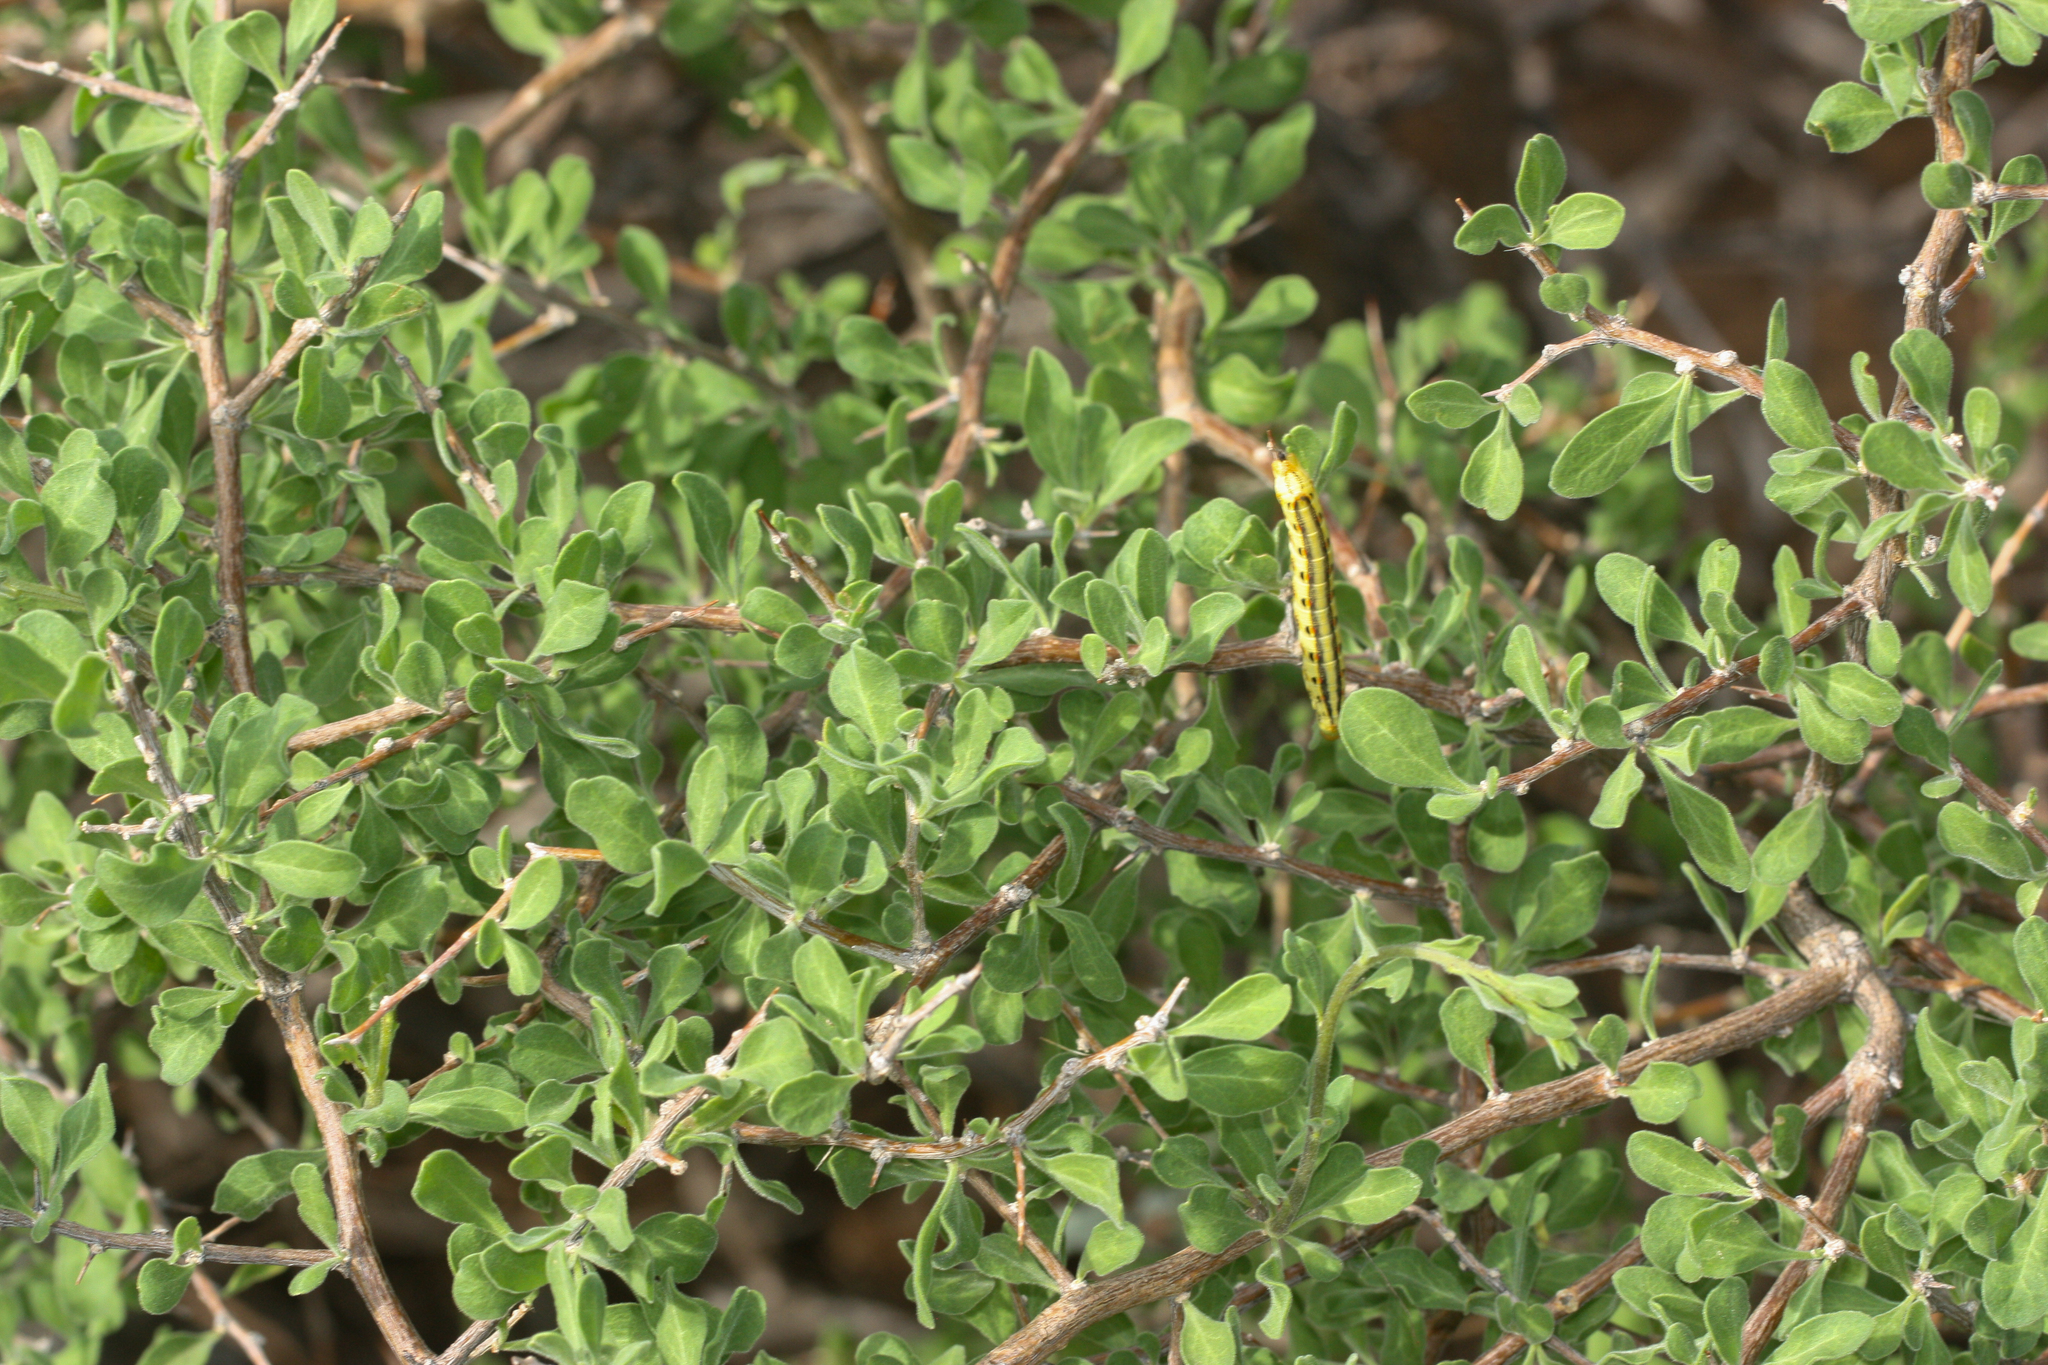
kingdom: Plantae
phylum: Tracheophyta
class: Magnoliopsida
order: Solanales
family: Solanaceae
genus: Lycium
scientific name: Lycium exsertum
